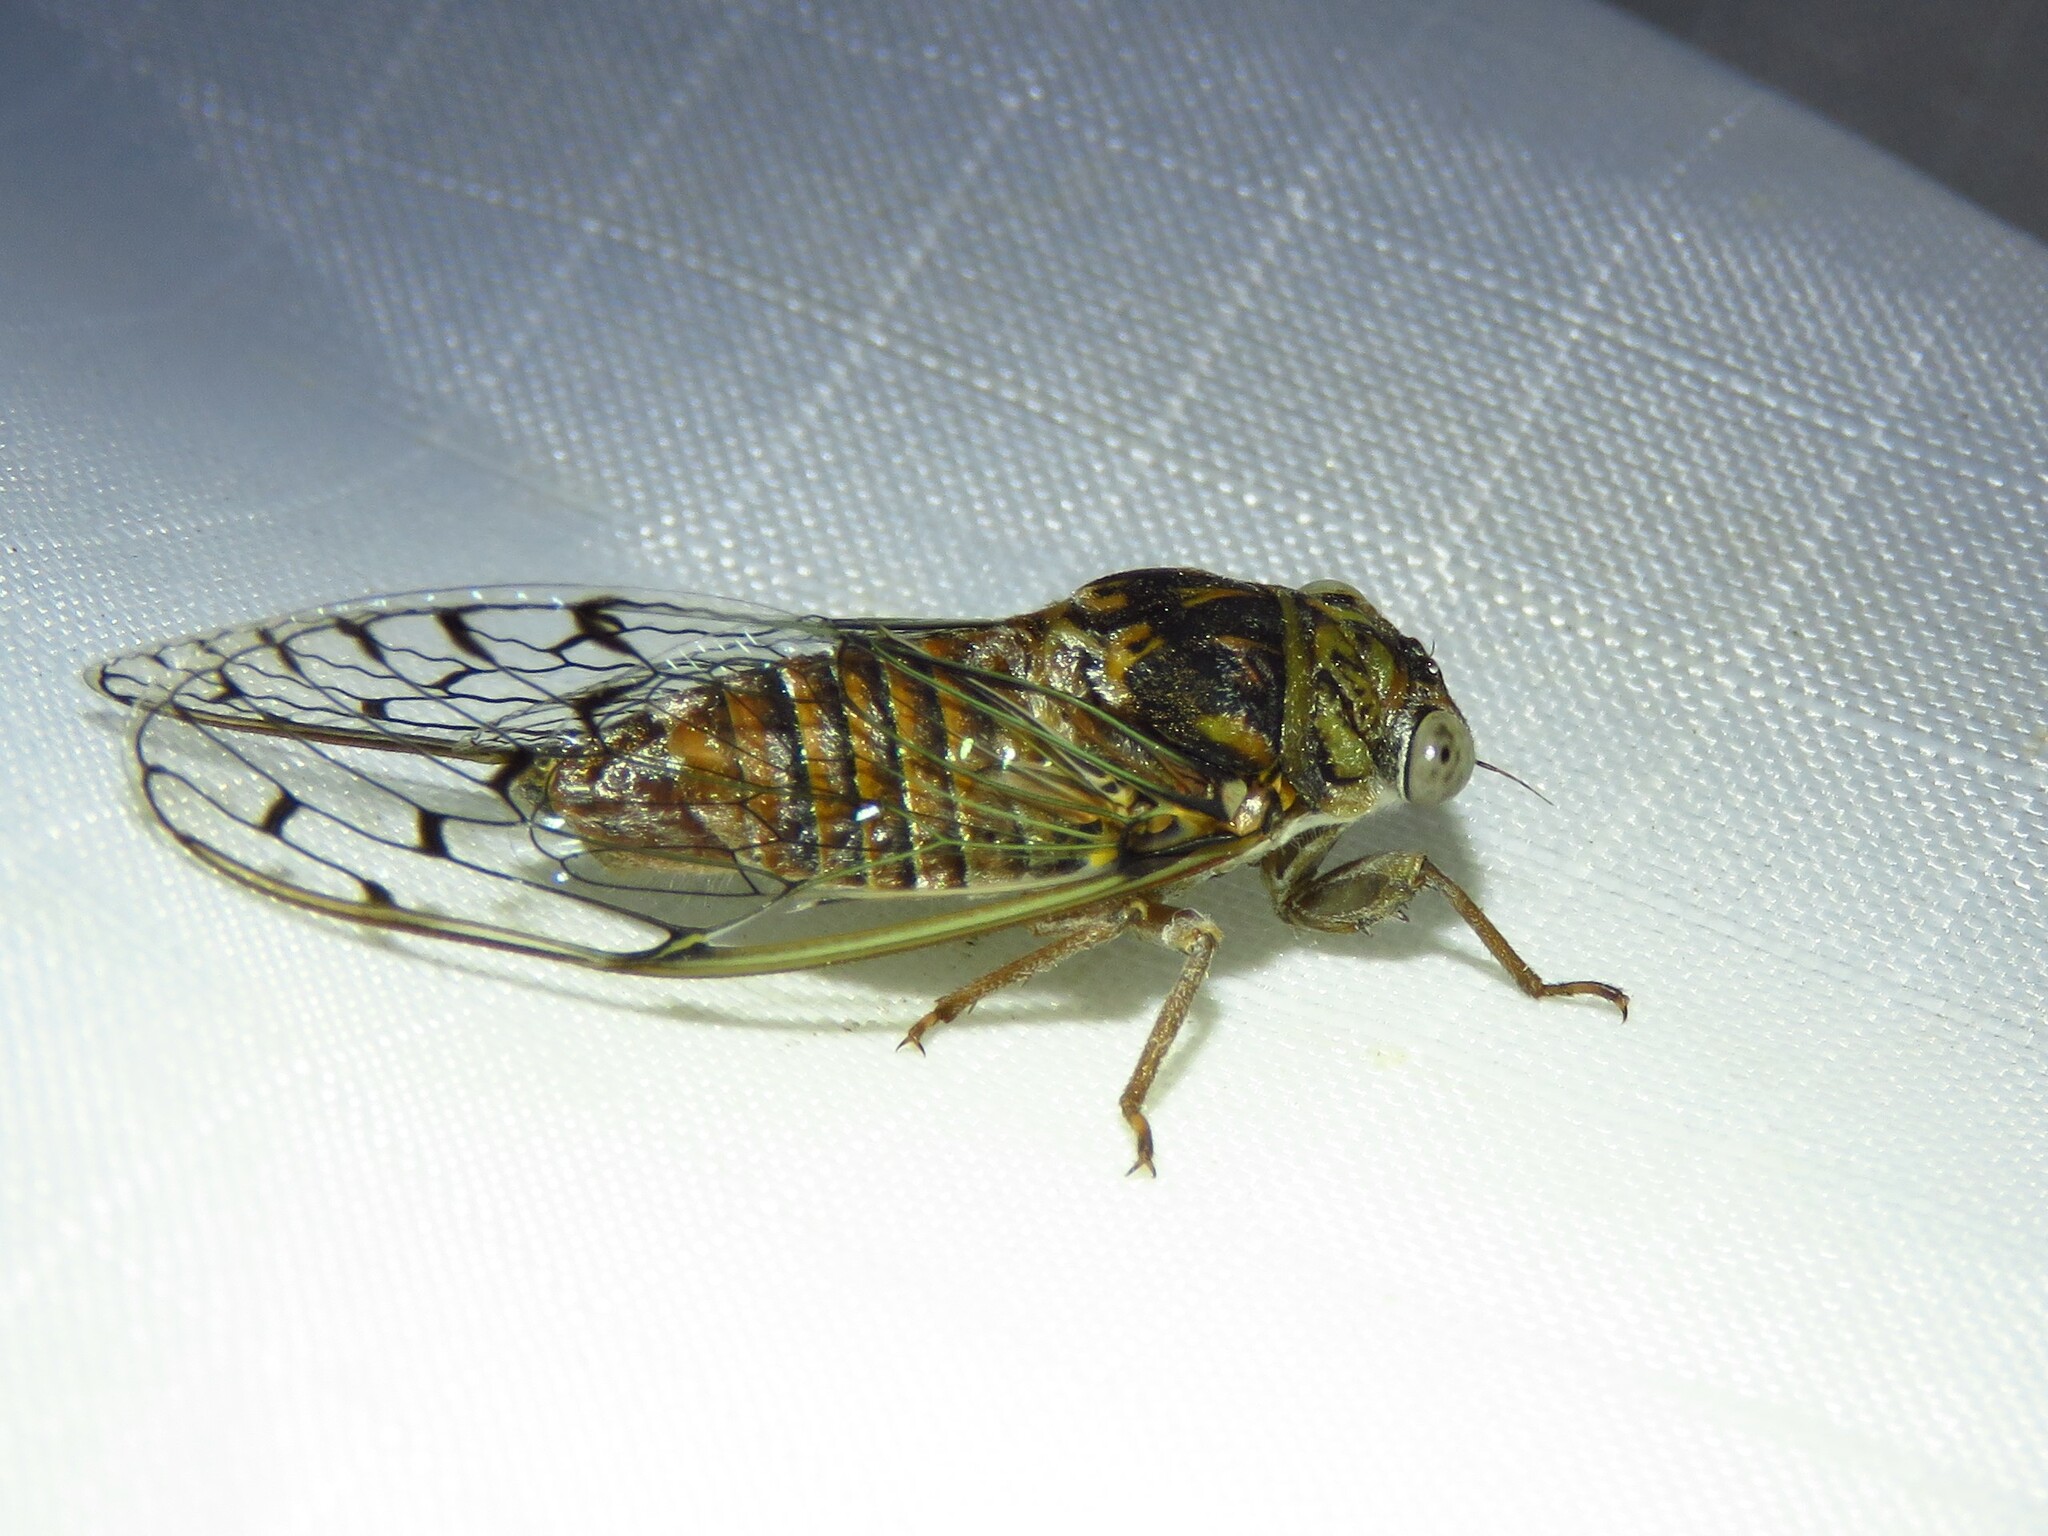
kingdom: Animalia
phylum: Arthropoda
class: Insecta
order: Hemiptera
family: Cicadidae
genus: Pacarina
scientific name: Pacarina puella
